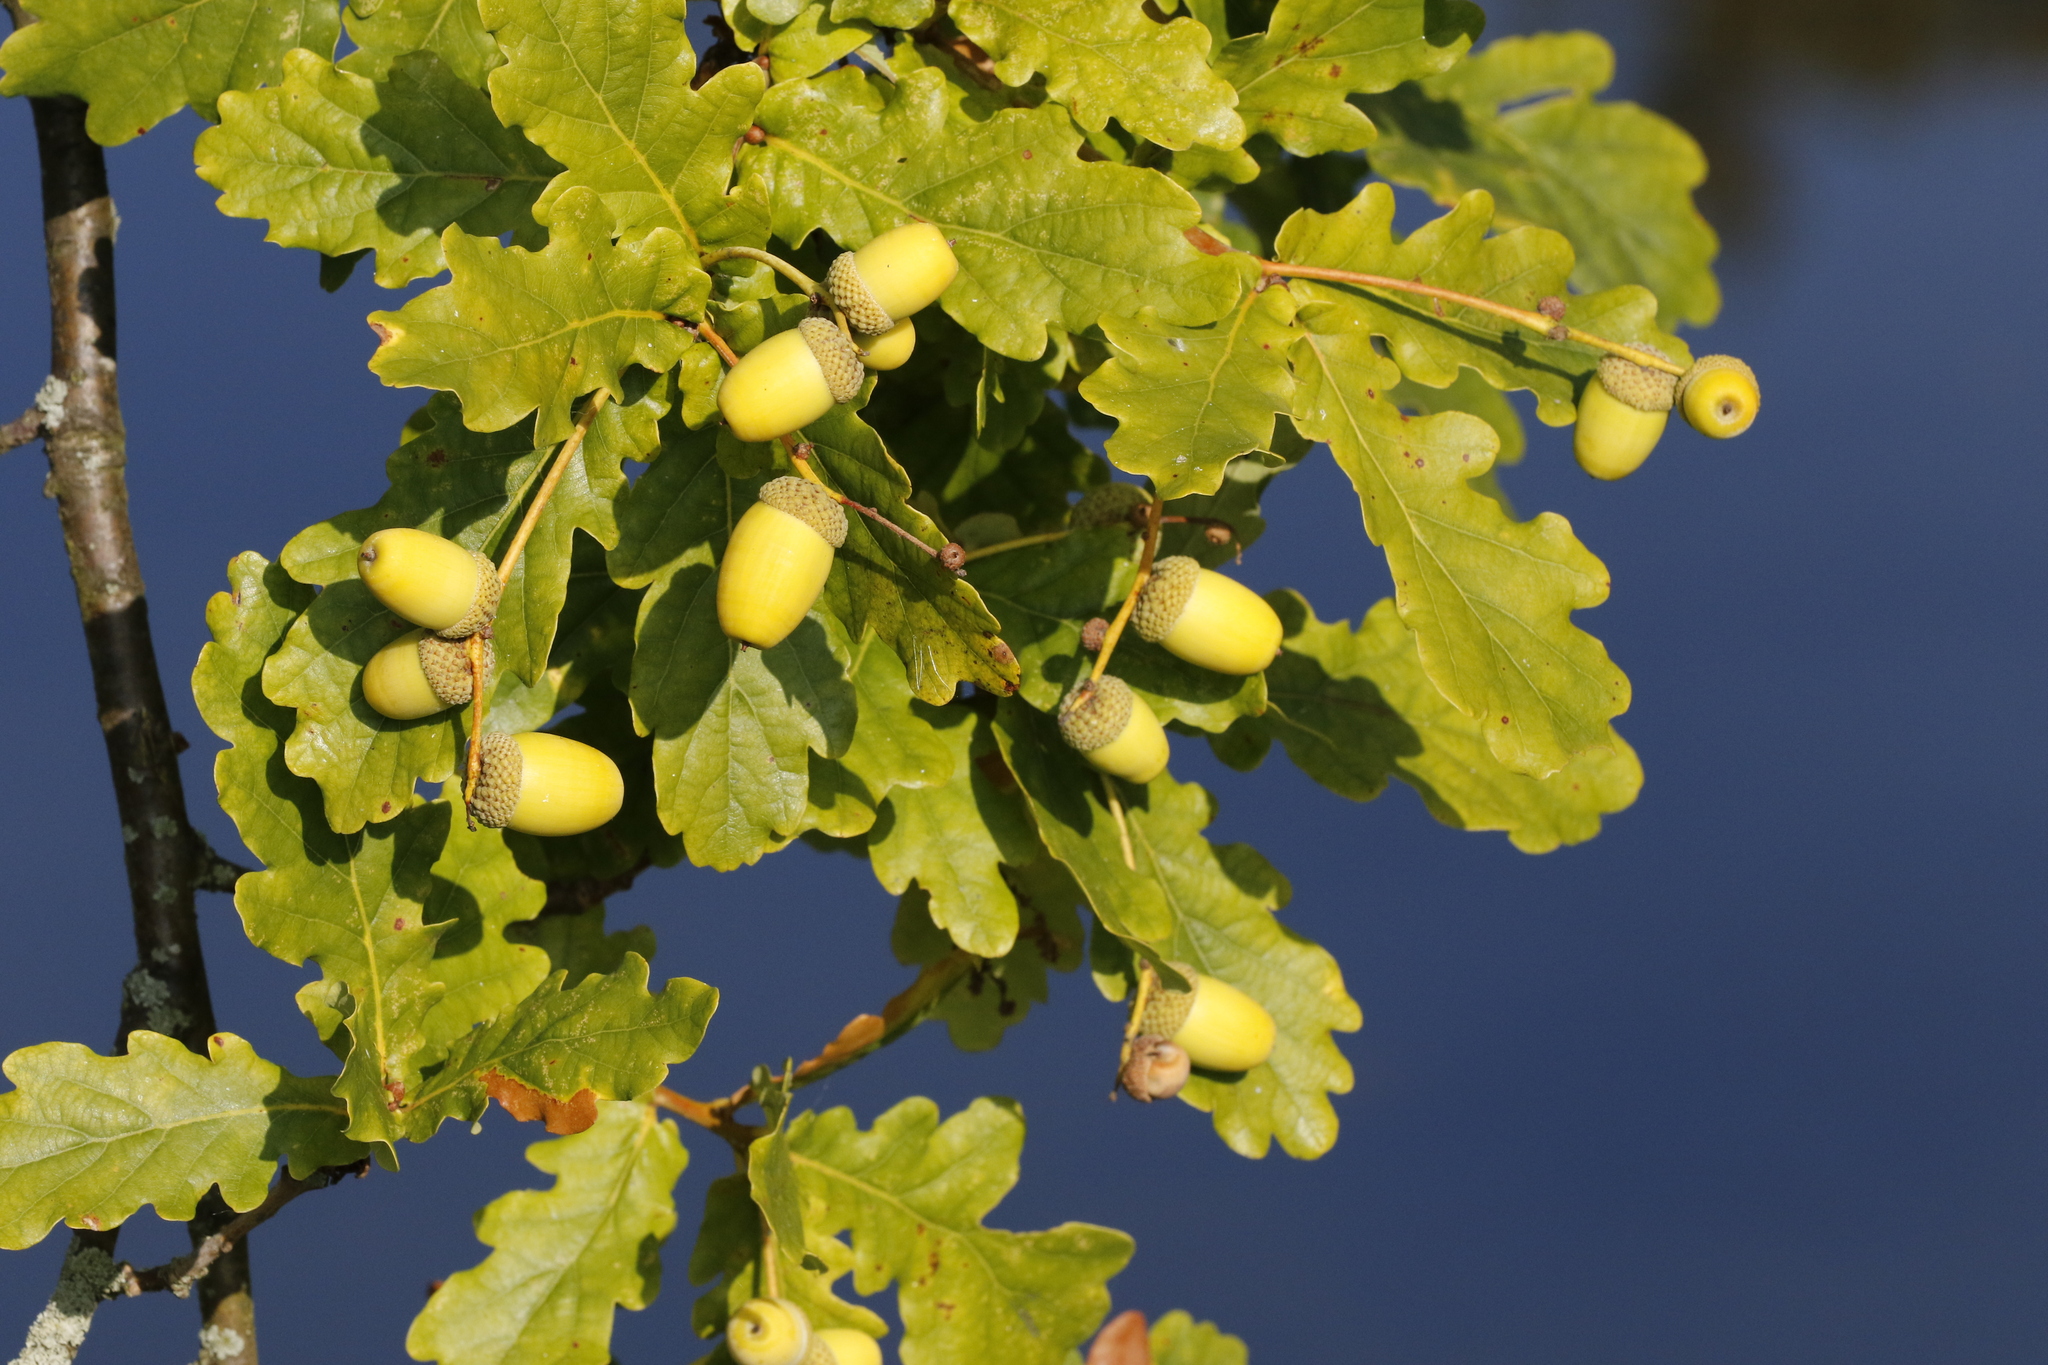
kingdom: Plantae
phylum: Tracheophyta
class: Magnoliopsida
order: Fagales
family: Fagaceae
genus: Quercus
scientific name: Quercus robur
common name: Pedunculate oak
